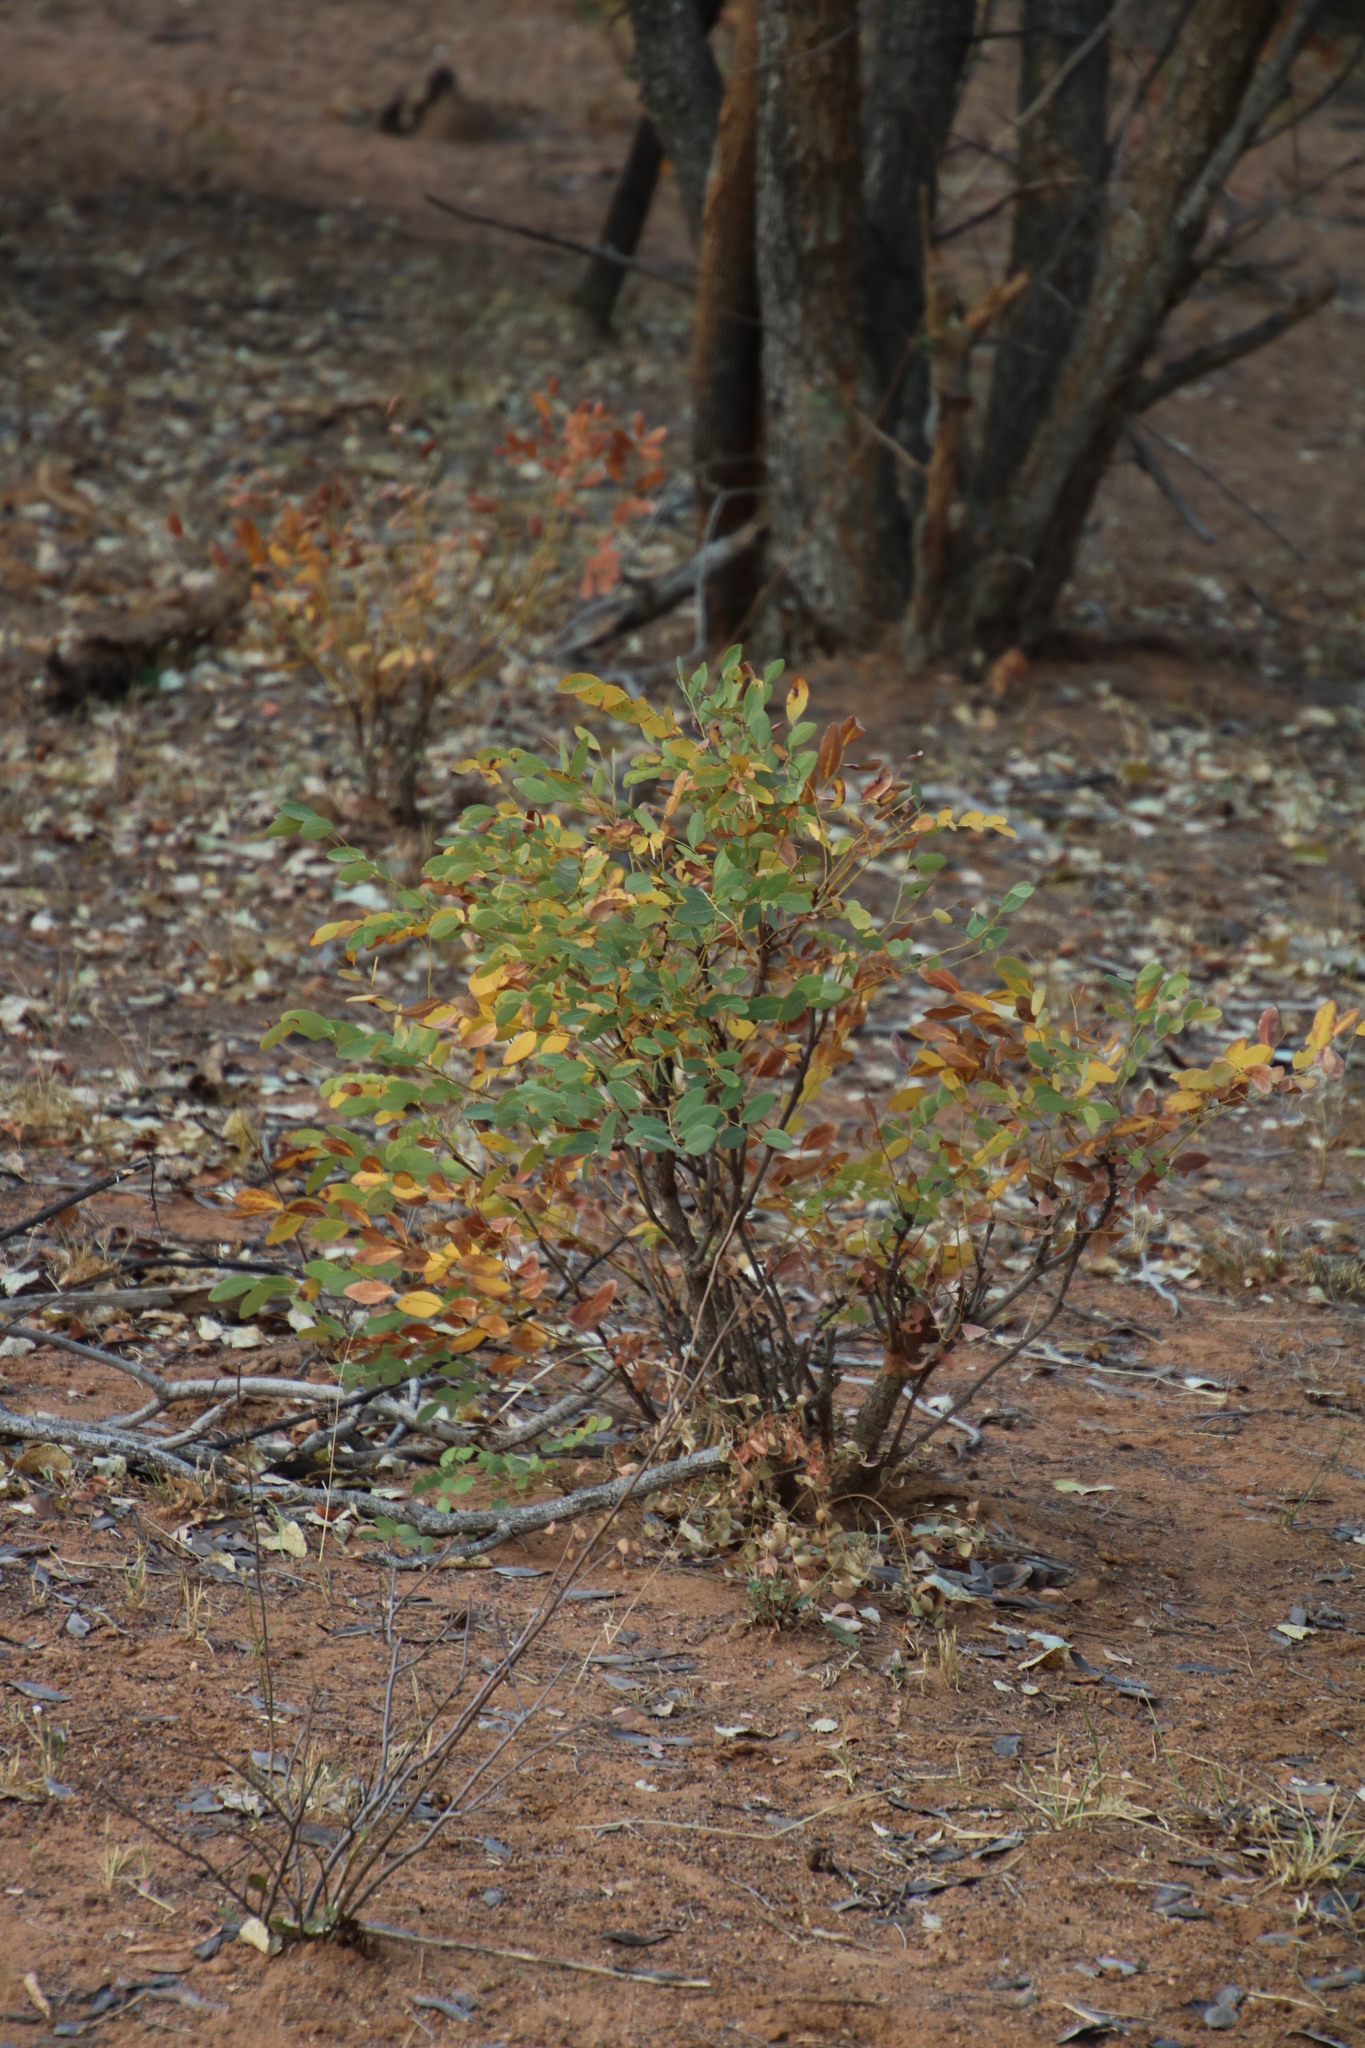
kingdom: Plantae
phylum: Tracheophyta
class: Magnoliopsida
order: Fabales
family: Fabaceae
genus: Burkea
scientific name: Burkea africana
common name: Mkalati tree
